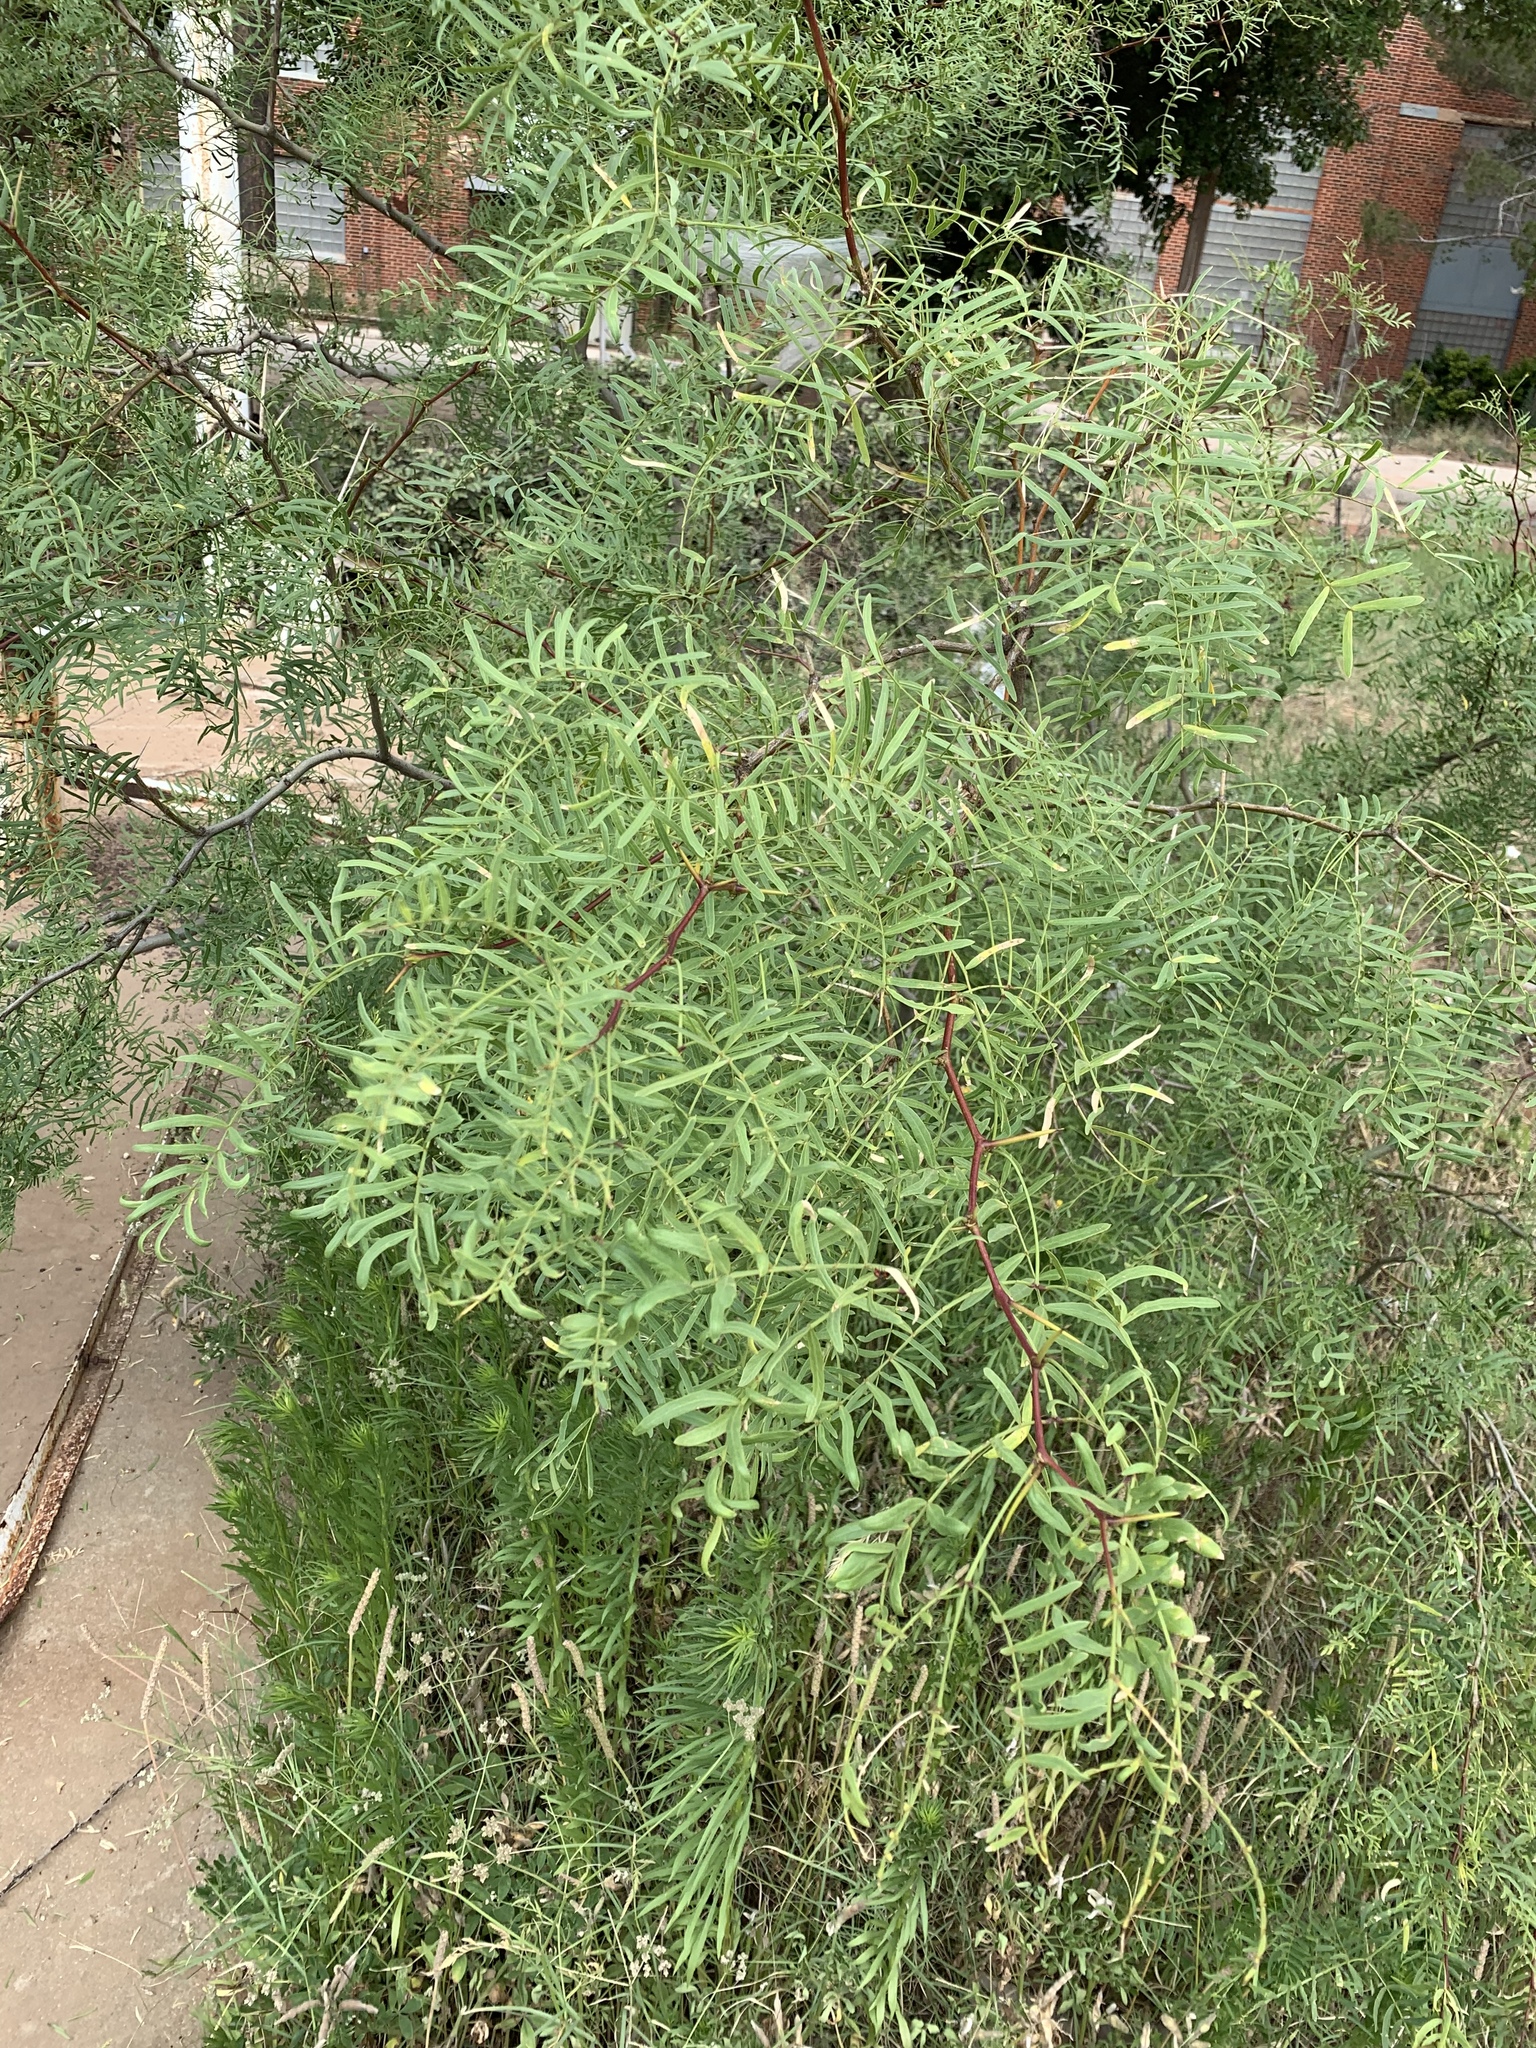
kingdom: Plantae
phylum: Tracheophyta
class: Magnoliopsida
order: Fabales
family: Fabaceae
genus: Prosopis
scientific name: Prosopis glandulosa
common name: Honey mesquite
